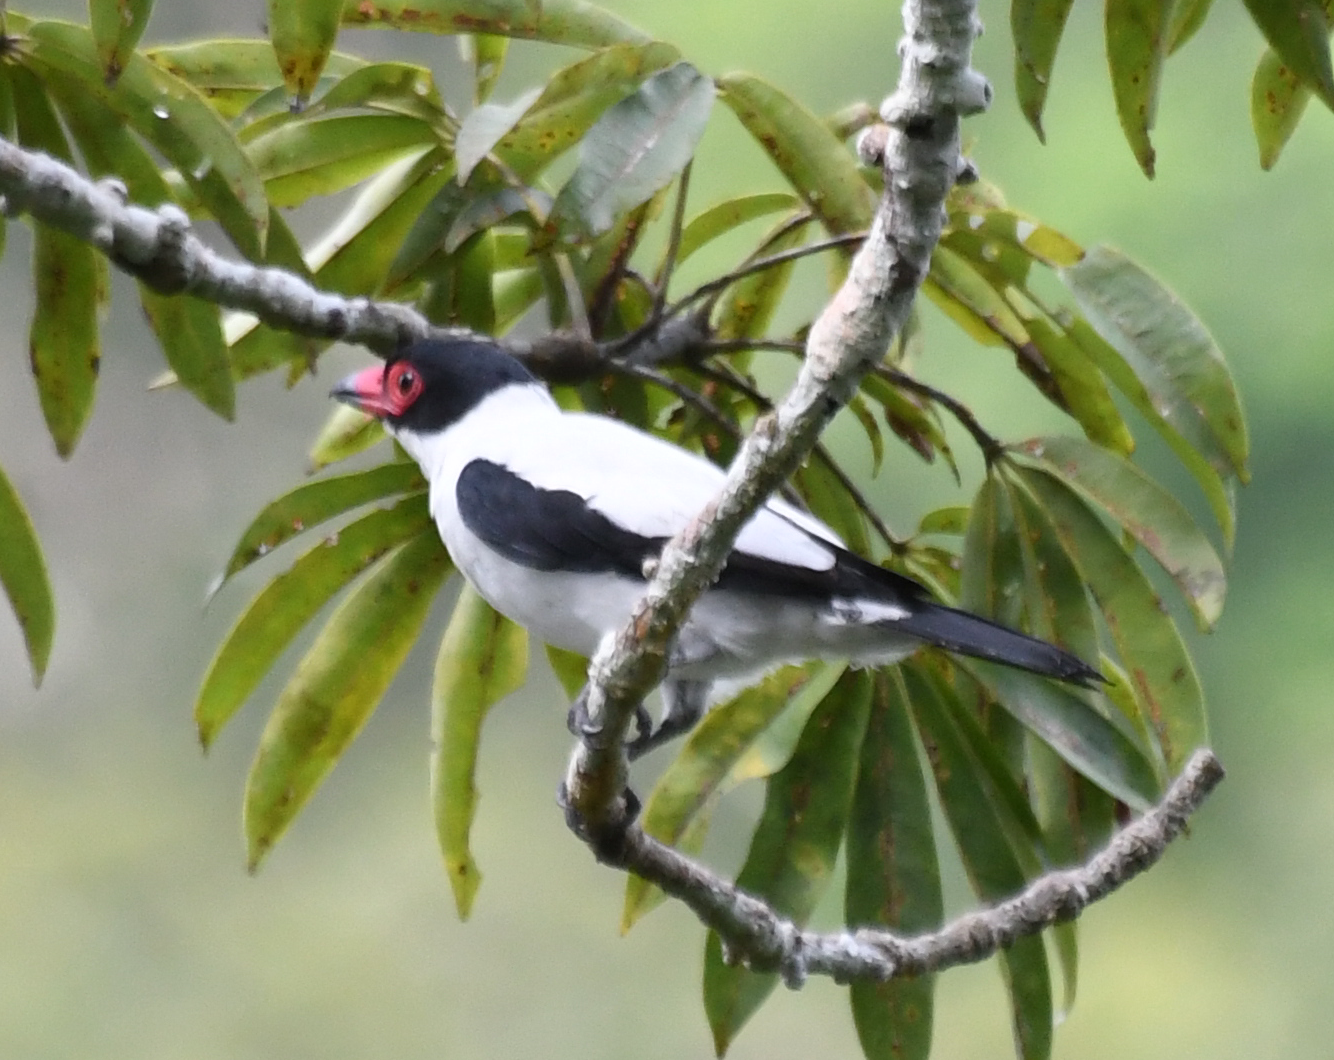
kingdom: Animalia
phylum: Chordata
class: Aves
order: Passeriformes
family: Cotingidae
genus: Tityra
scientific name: Tityra cayana
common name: Black-tailed tityra
